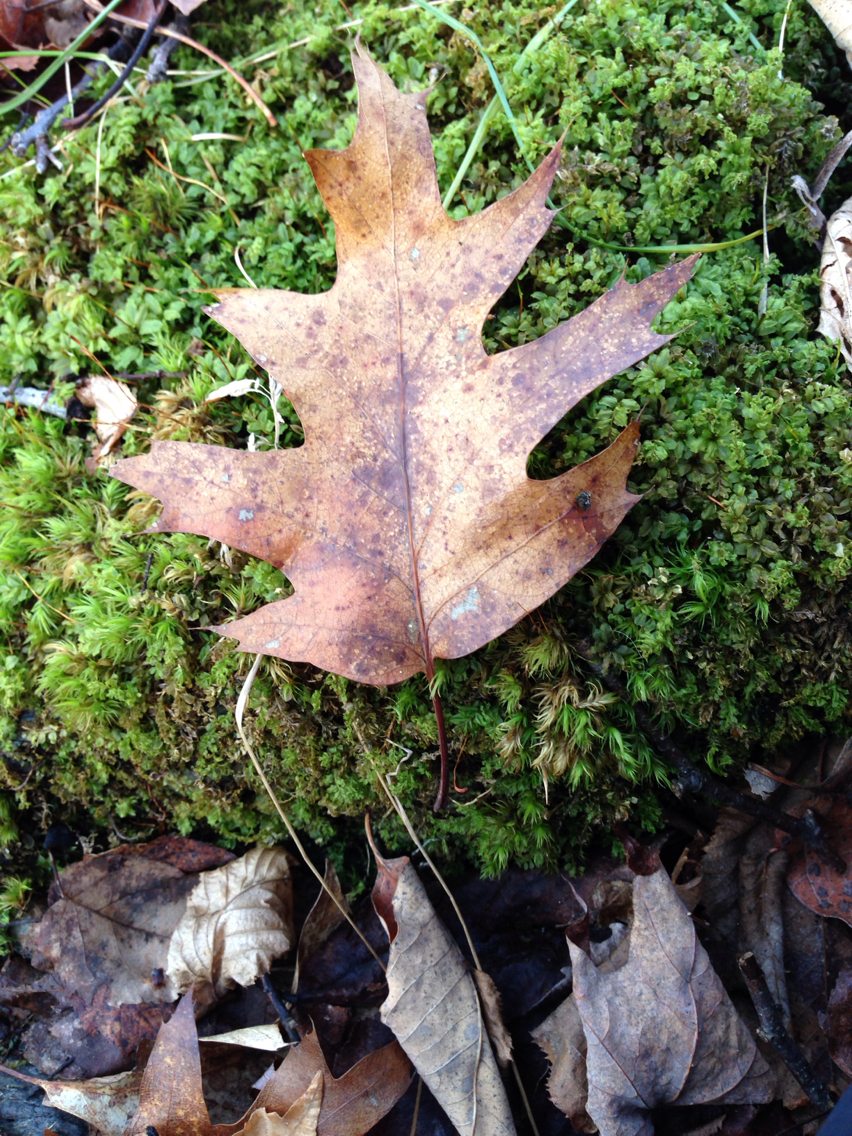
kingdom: Plantae
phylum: Tracheophyta
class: Magnoliopsida
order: Fagales
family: Fagaceae
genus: Quercus
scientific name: Quercus rubra
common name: Red oak
